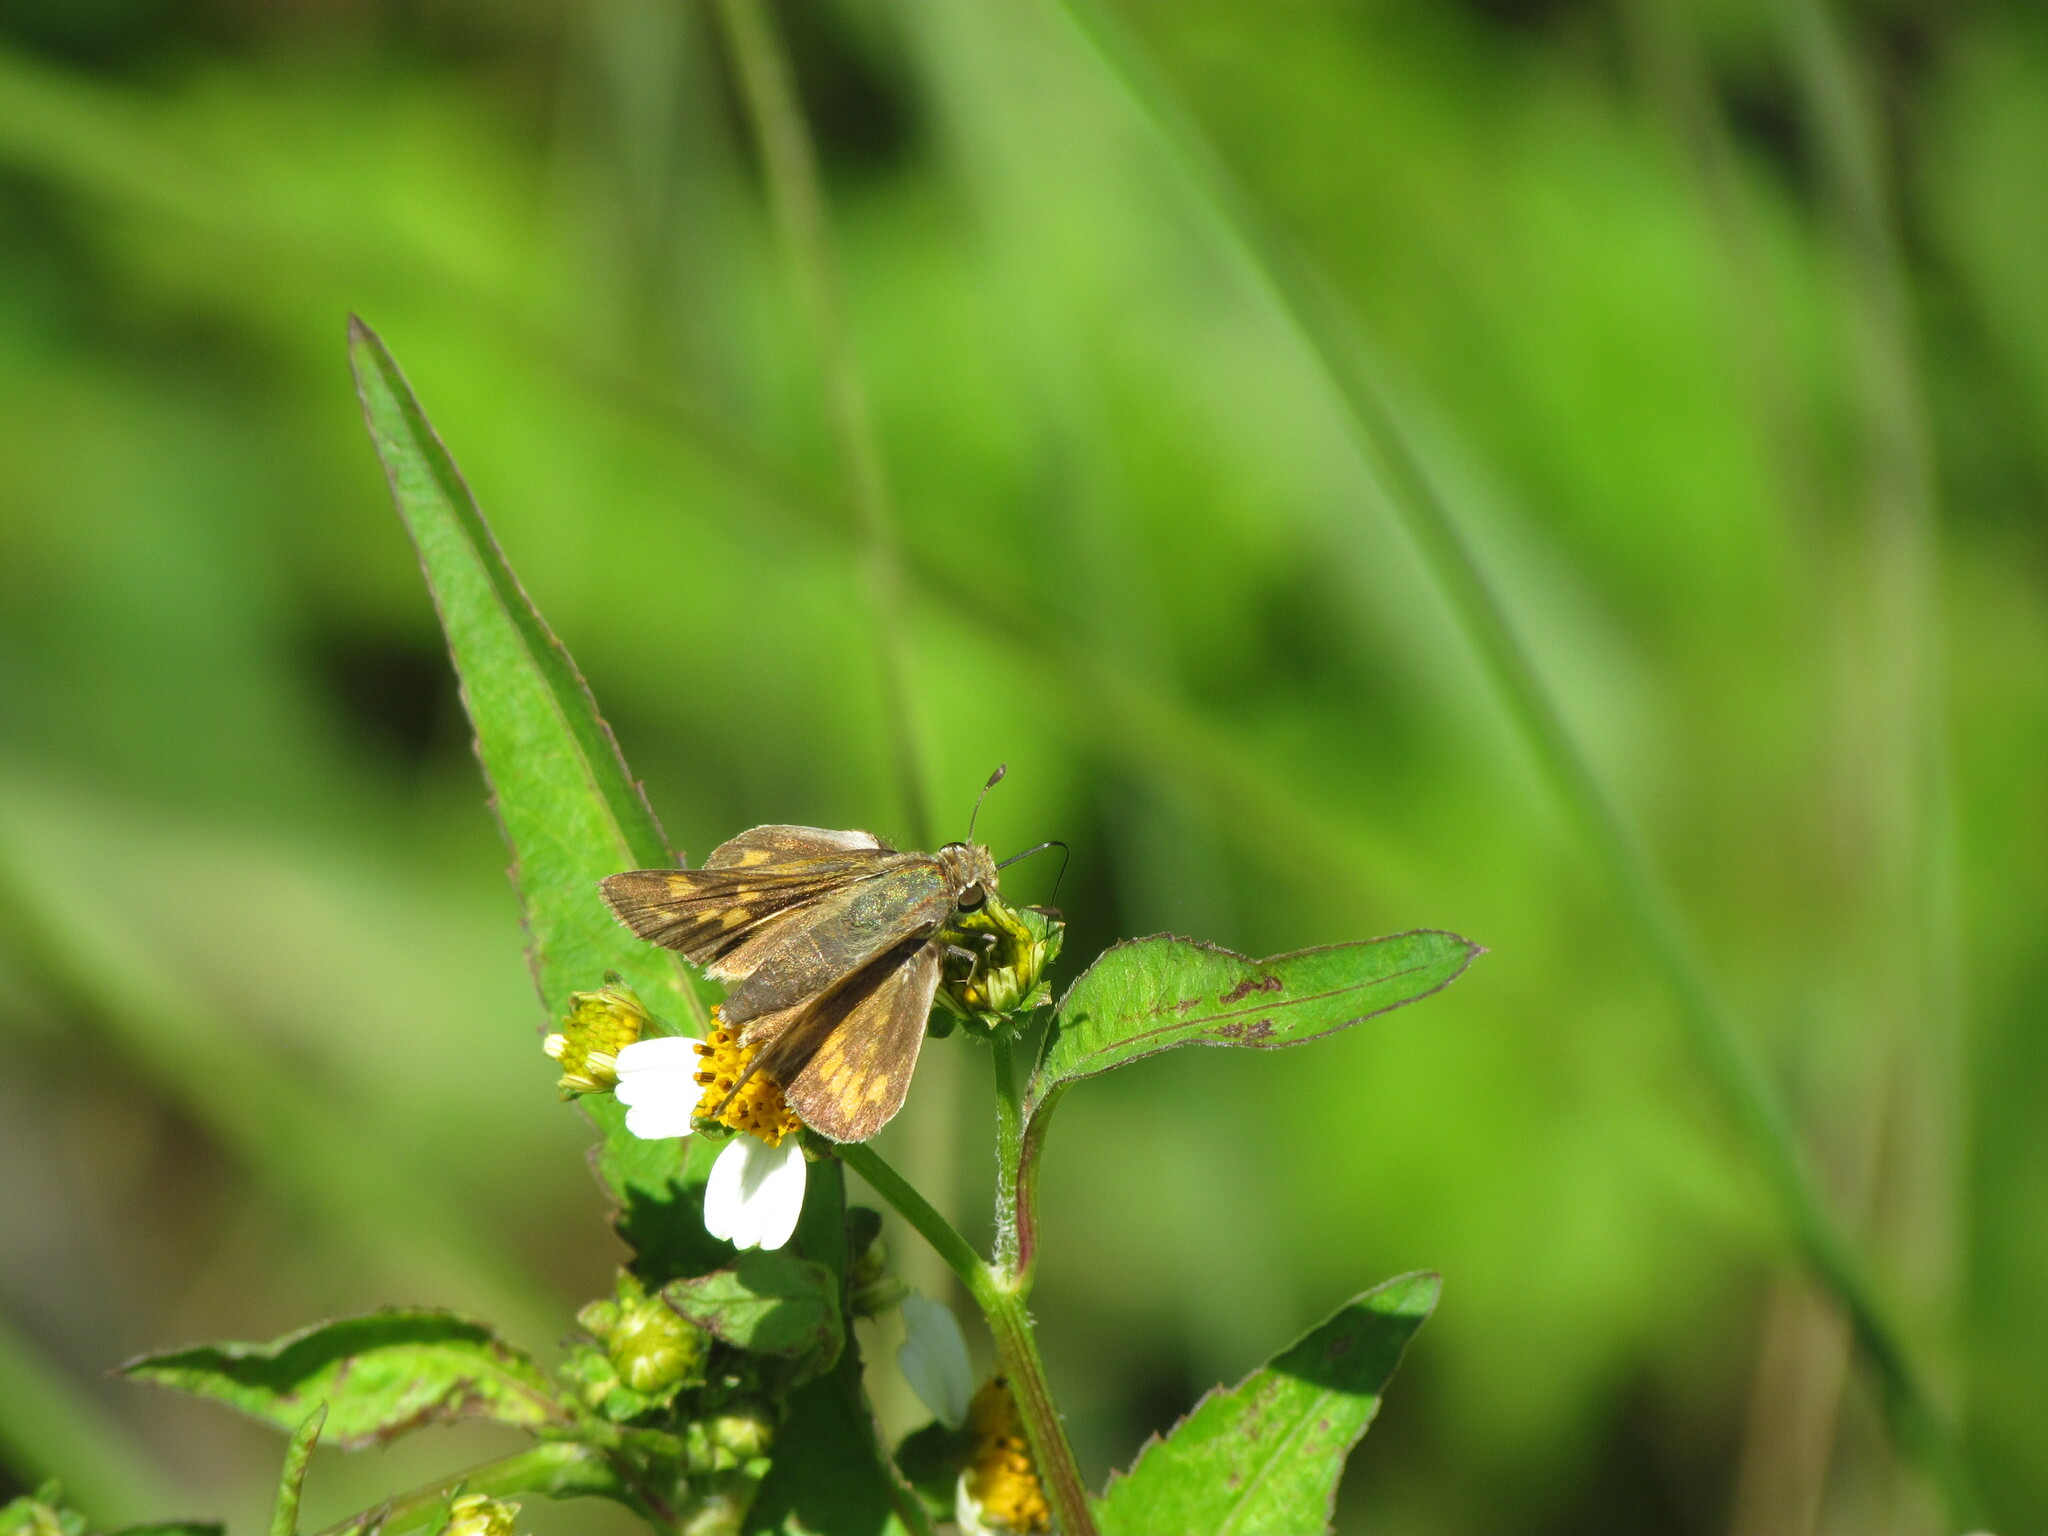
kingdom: Animalia
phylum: Arthropoda
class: Insecta
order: Lepidoptera
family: Hesperiidae
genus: Hylephila
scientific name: Hylephila phyleus
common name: Fiery skipper
